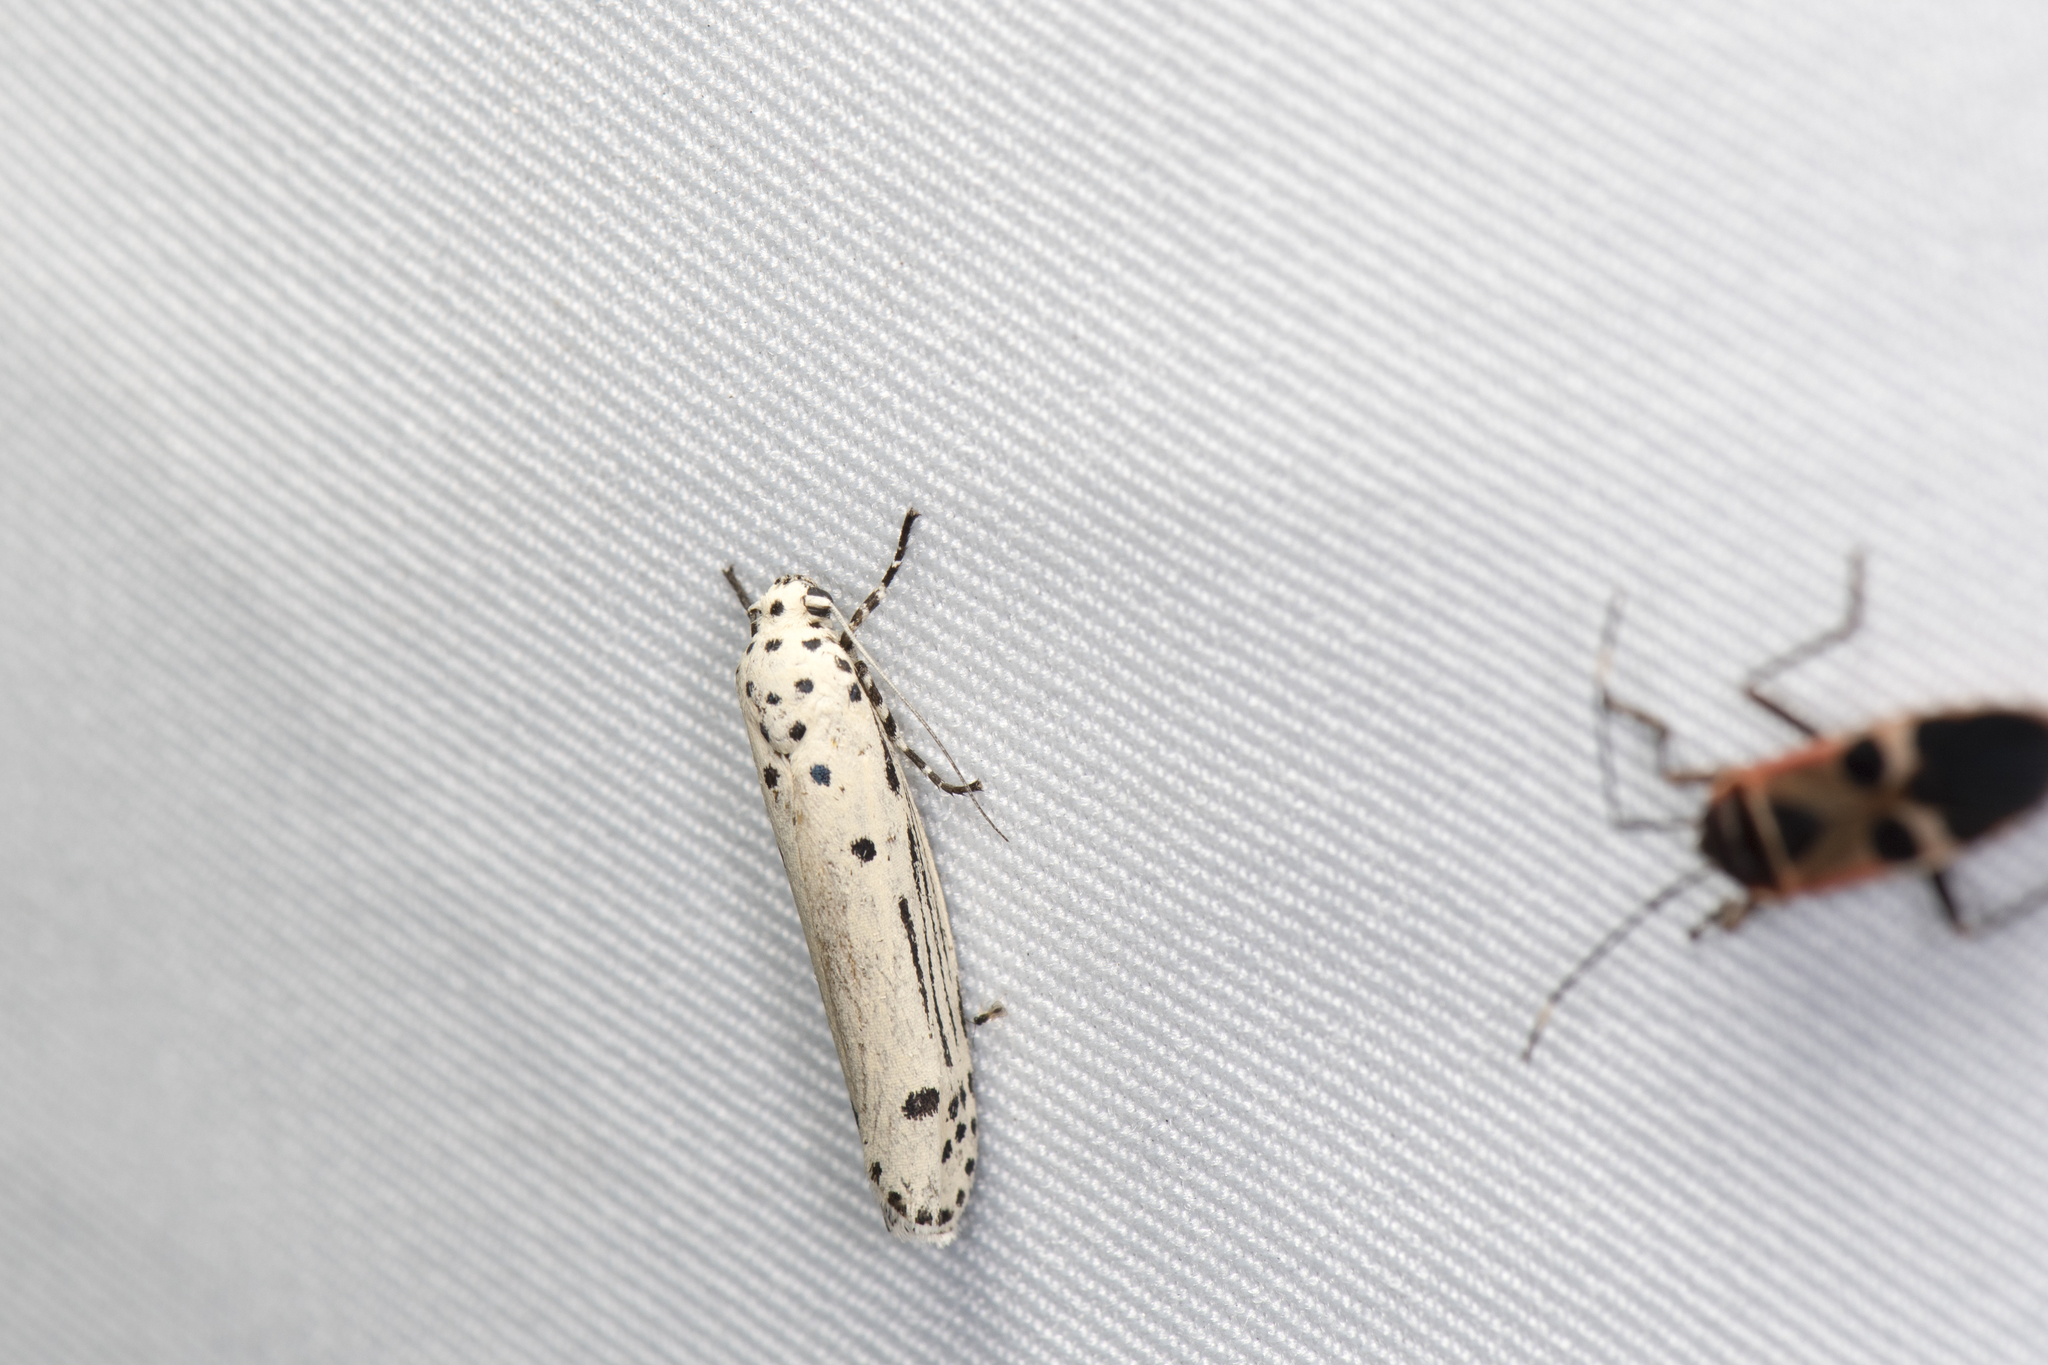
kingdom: Animalia
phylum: Arthropoda
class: Insecta
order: Lepidoptera
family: Ethmiidae
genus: Ethmia
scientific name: Ethmia lineatonotella
